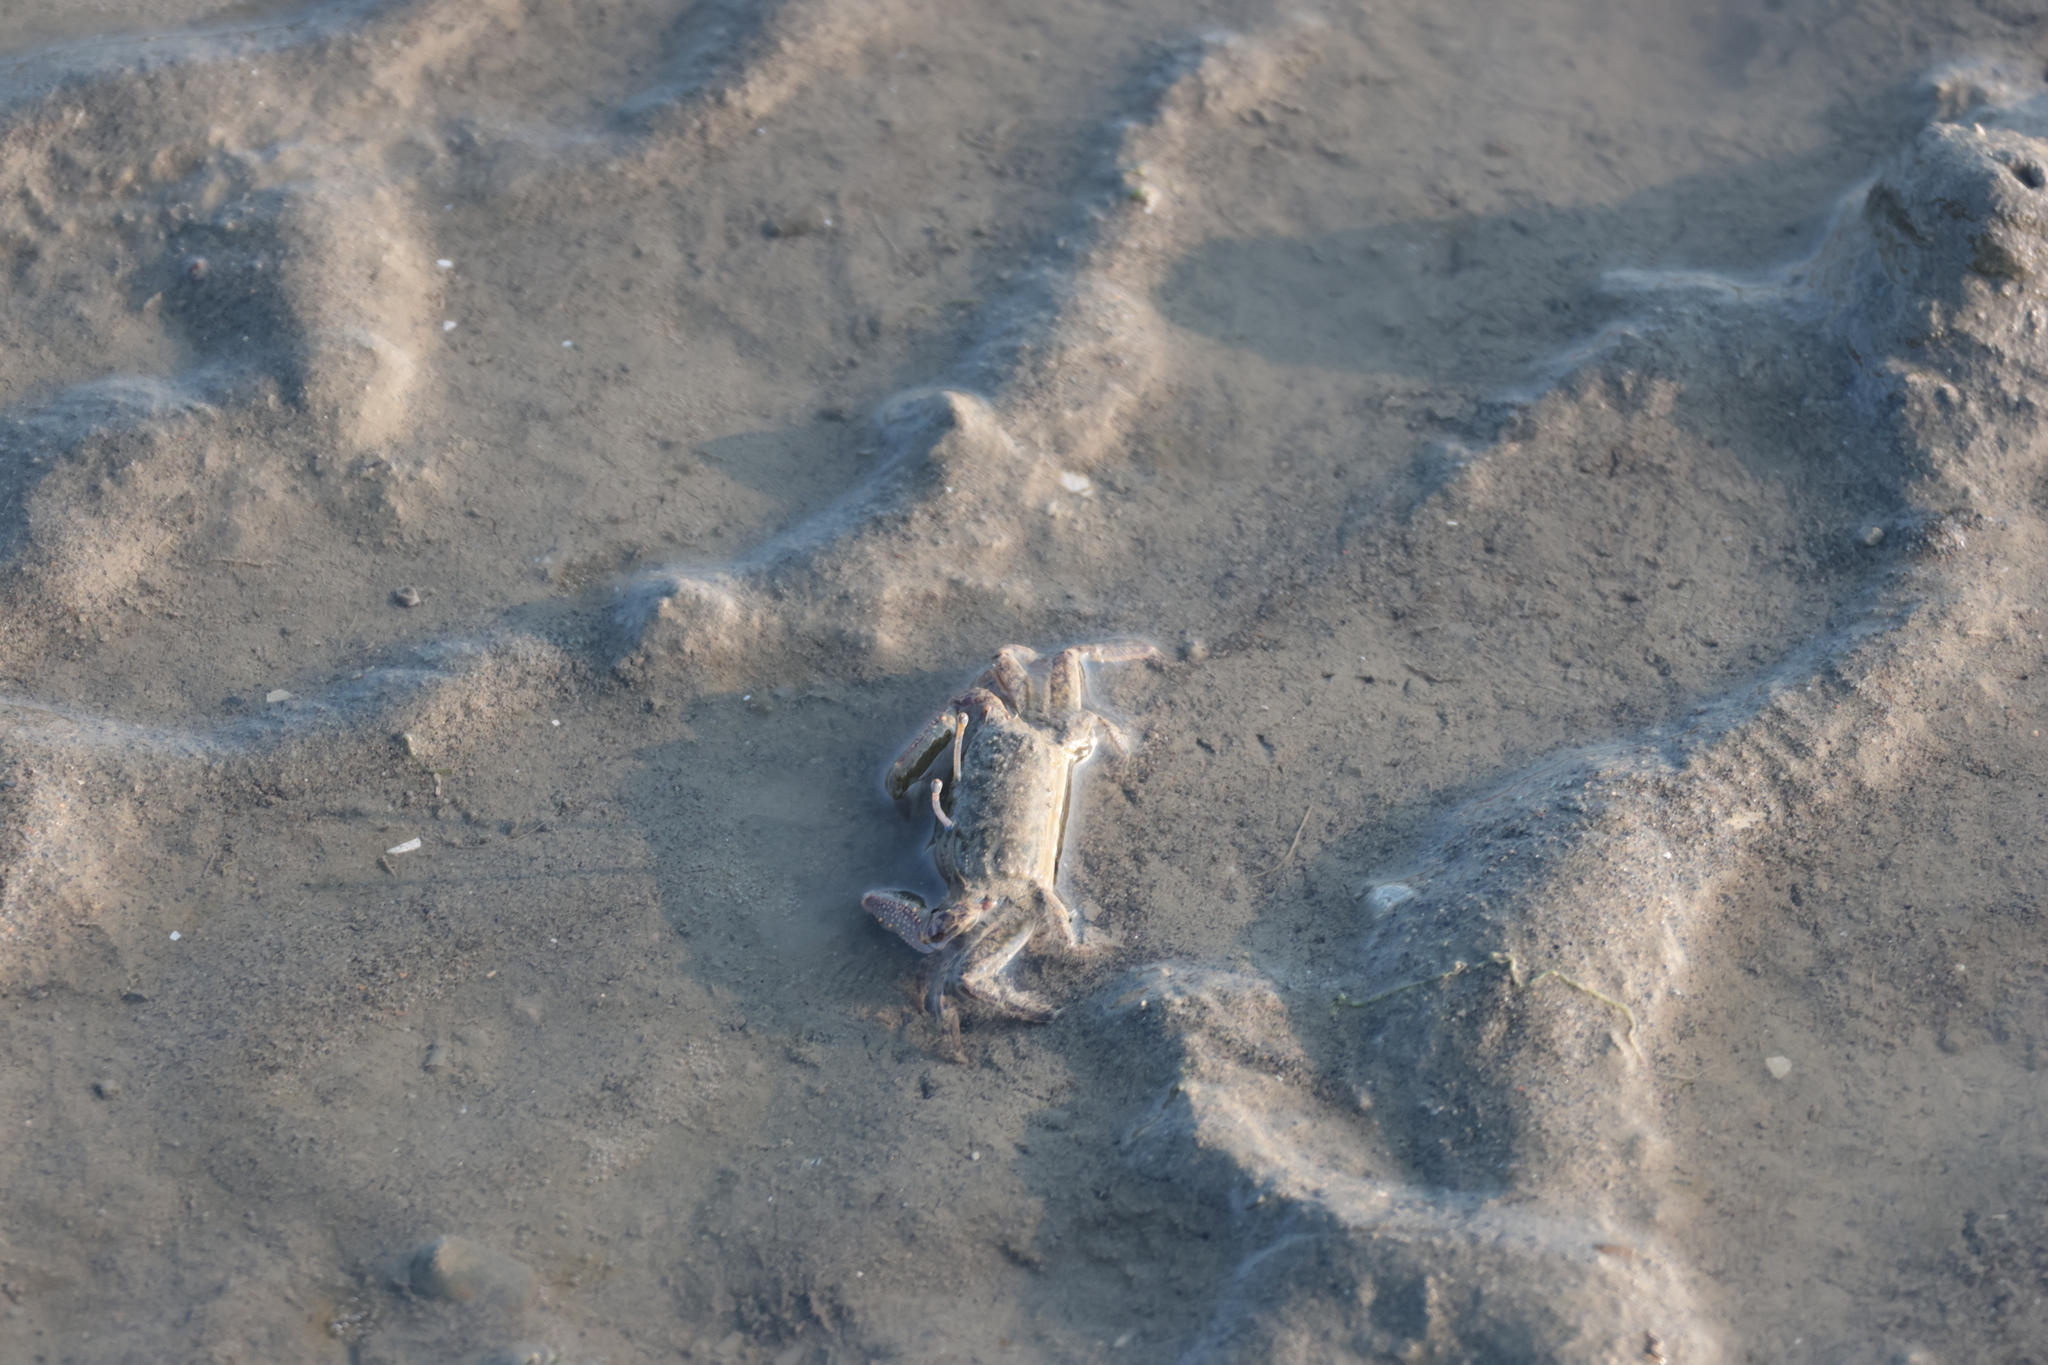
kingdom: Animalia
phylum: Arthropoda
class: Malacostraca
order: Decapoda
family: Macrophthalmidae
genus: Macrophthalmus
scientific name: Macrophthalmus banzai
